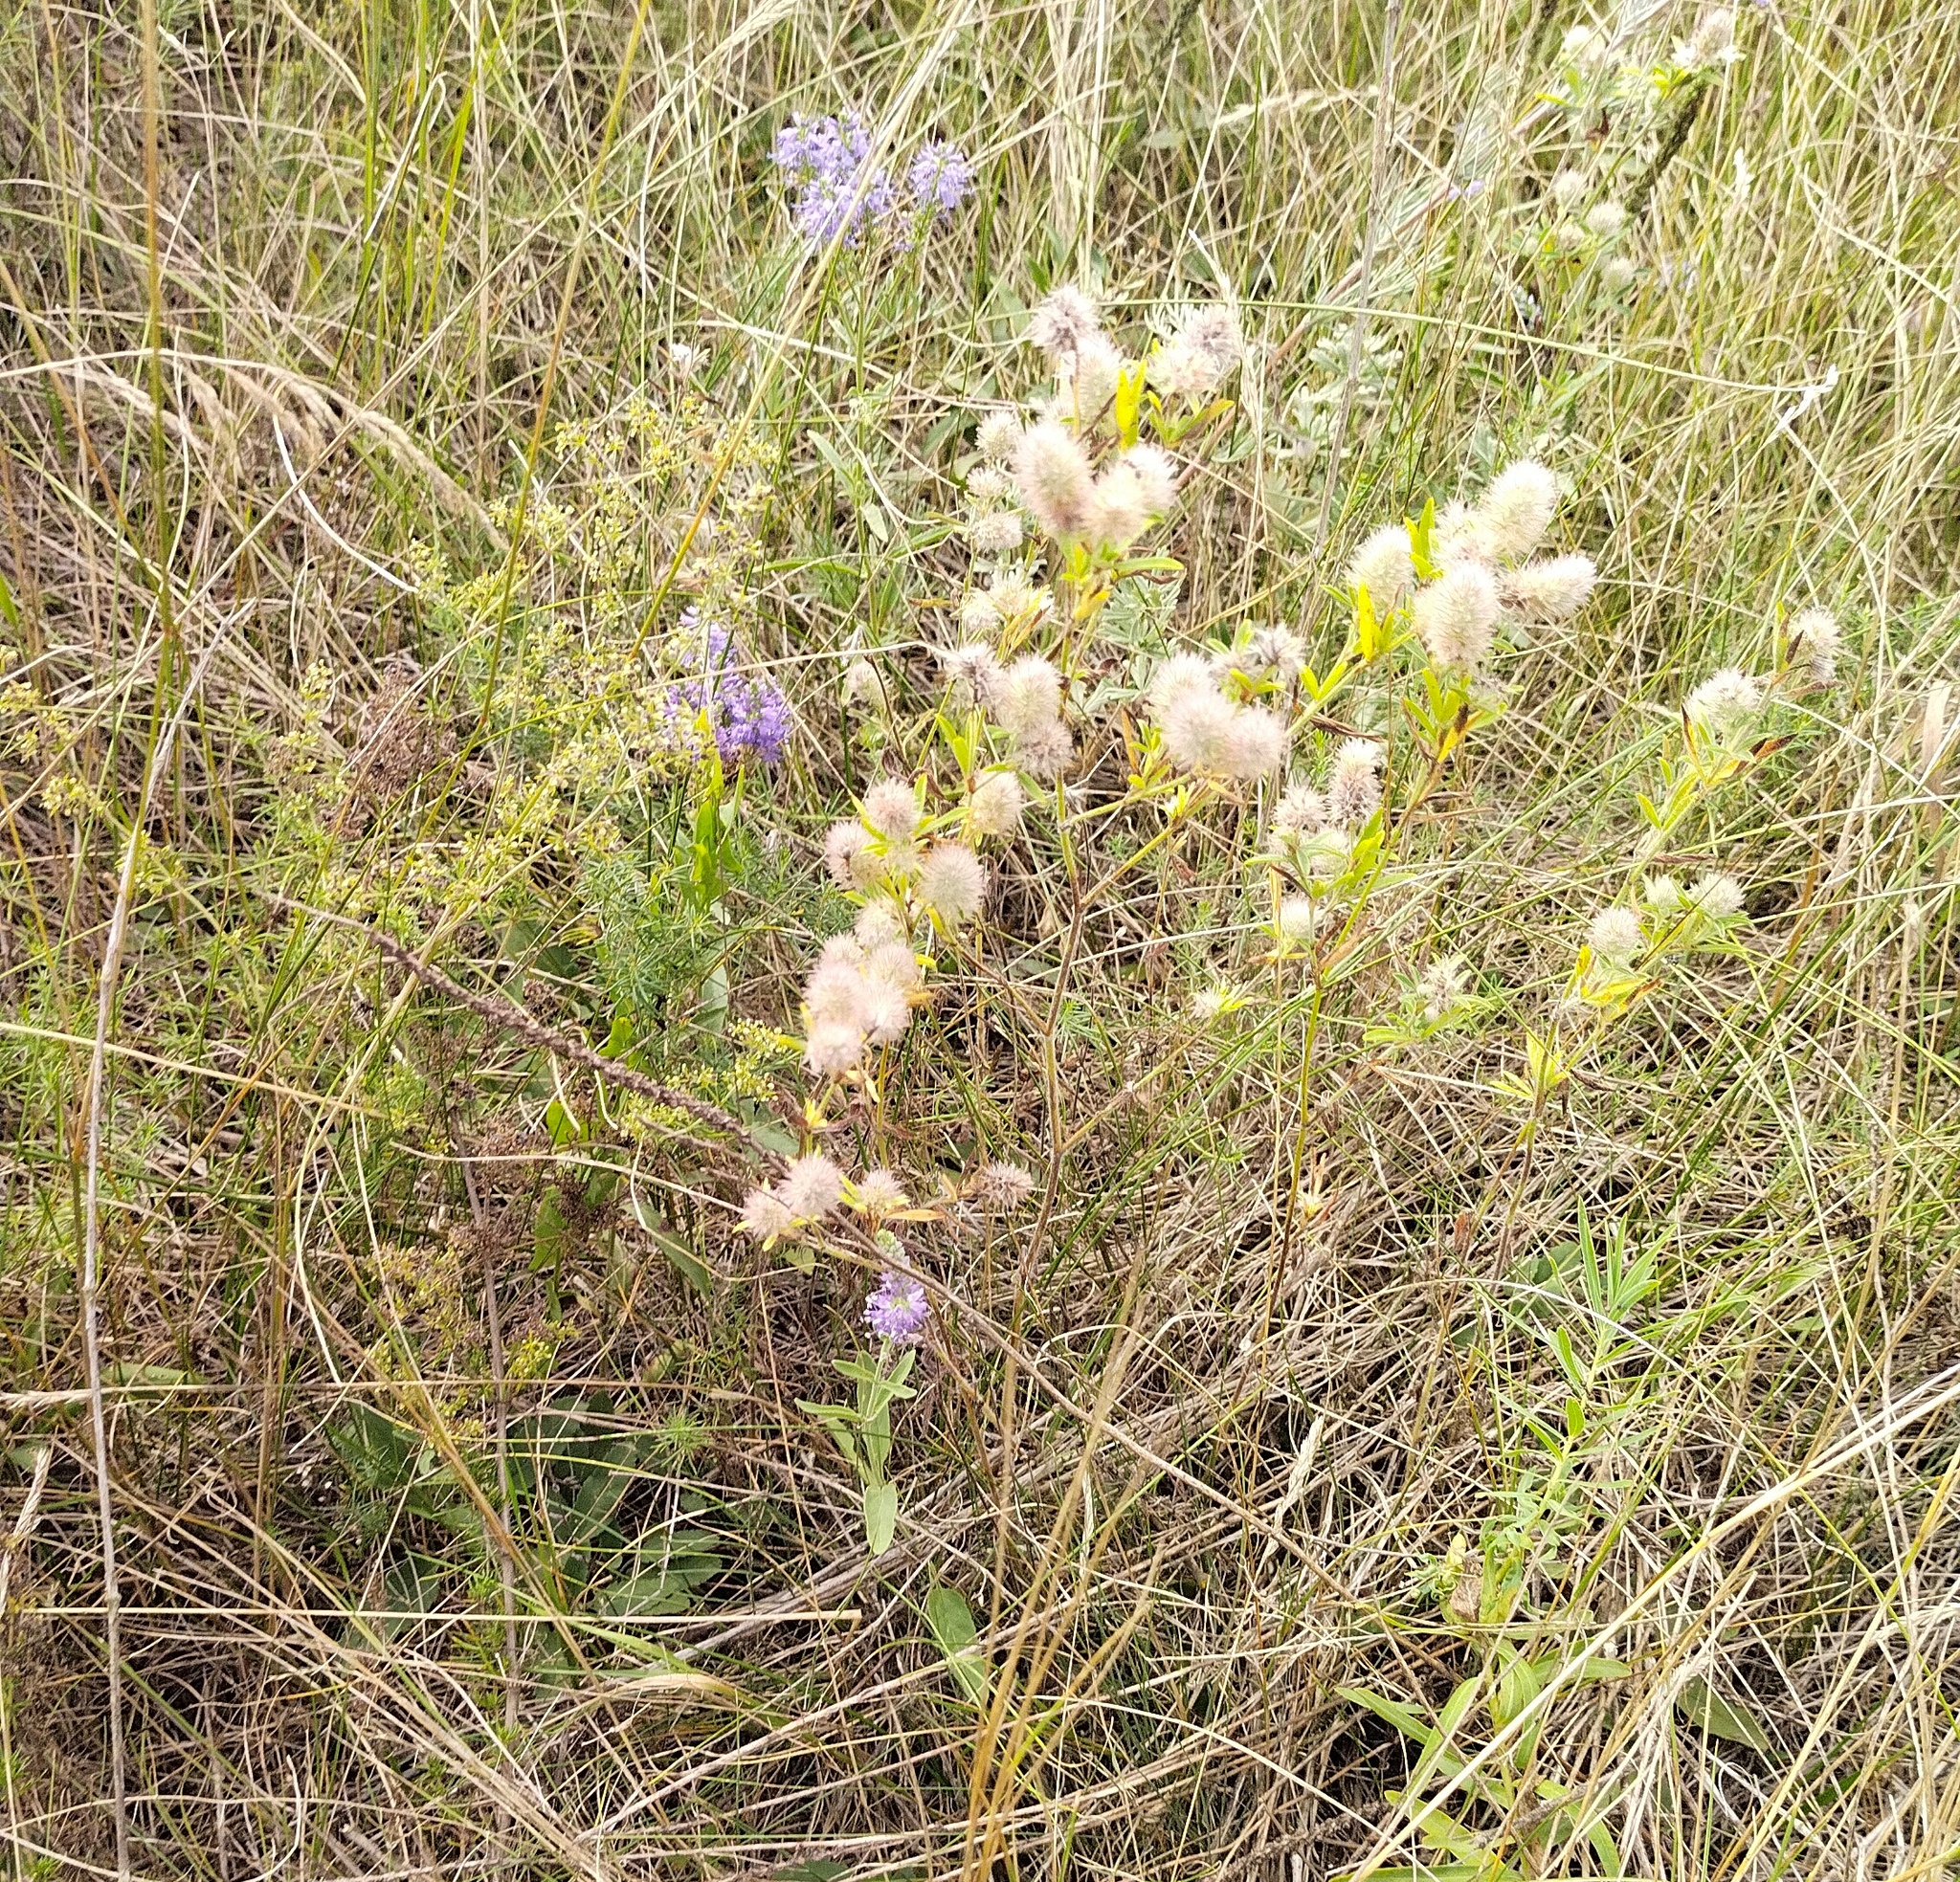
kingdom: Plantae
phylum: Tracheophyta
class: Magnoliopsida
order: Fabales
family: Fabaceae
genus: Trifolium
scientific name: Trifolium arvense
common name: Hare's-foot clover
